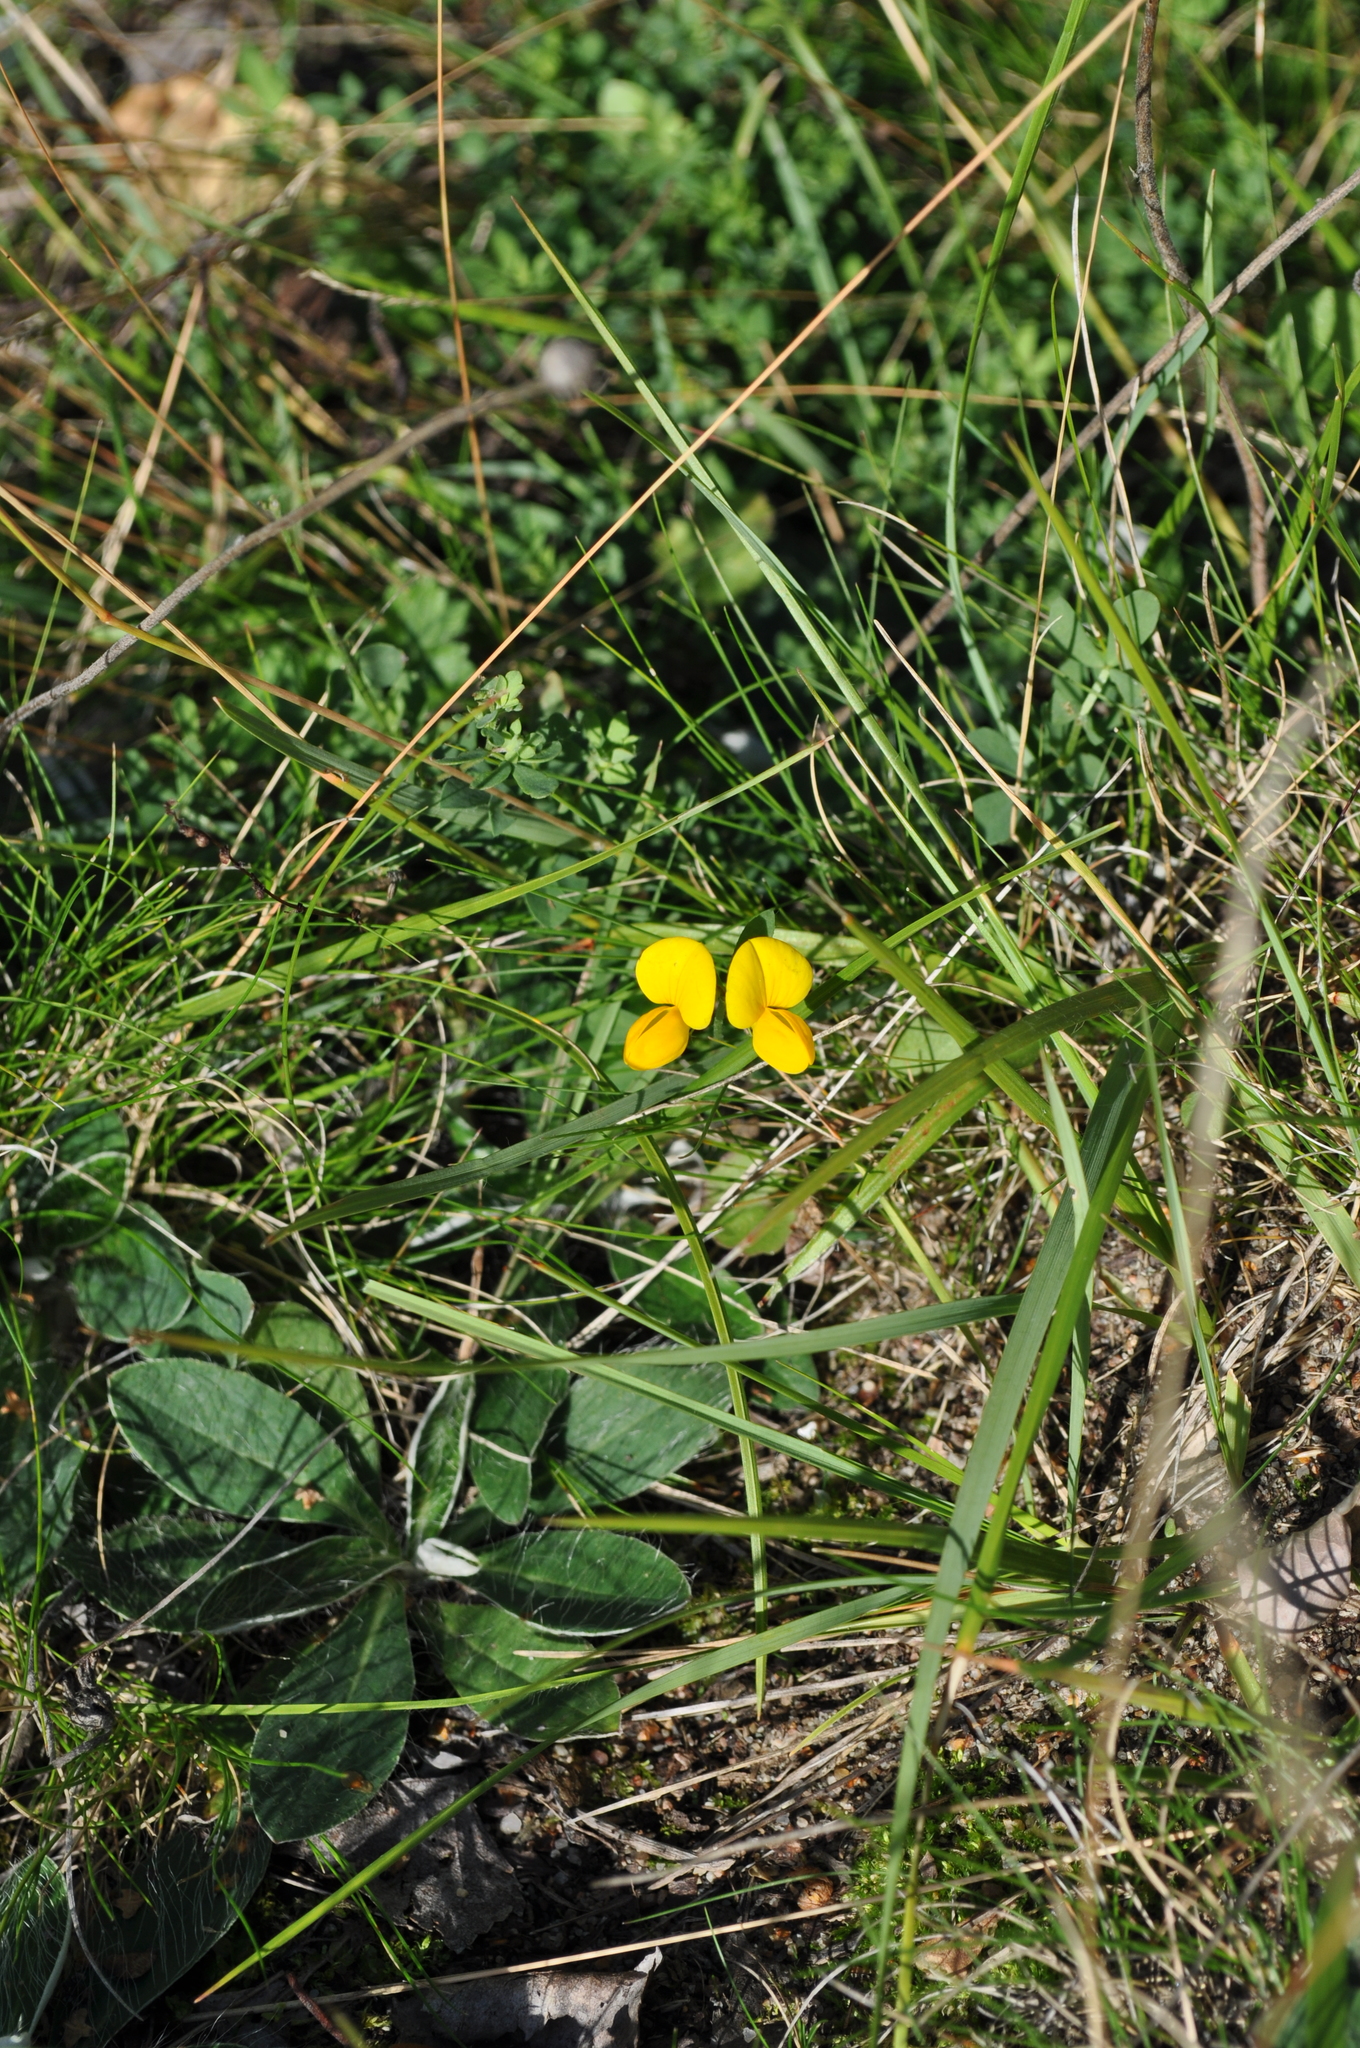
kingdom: Plantae
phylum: Tracheophyta
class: Magnoliopsida
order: Fabales
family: Fabaceae
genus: Lotus
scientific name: Lotus corniculatus
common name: Common bird's-foot-trefoil
